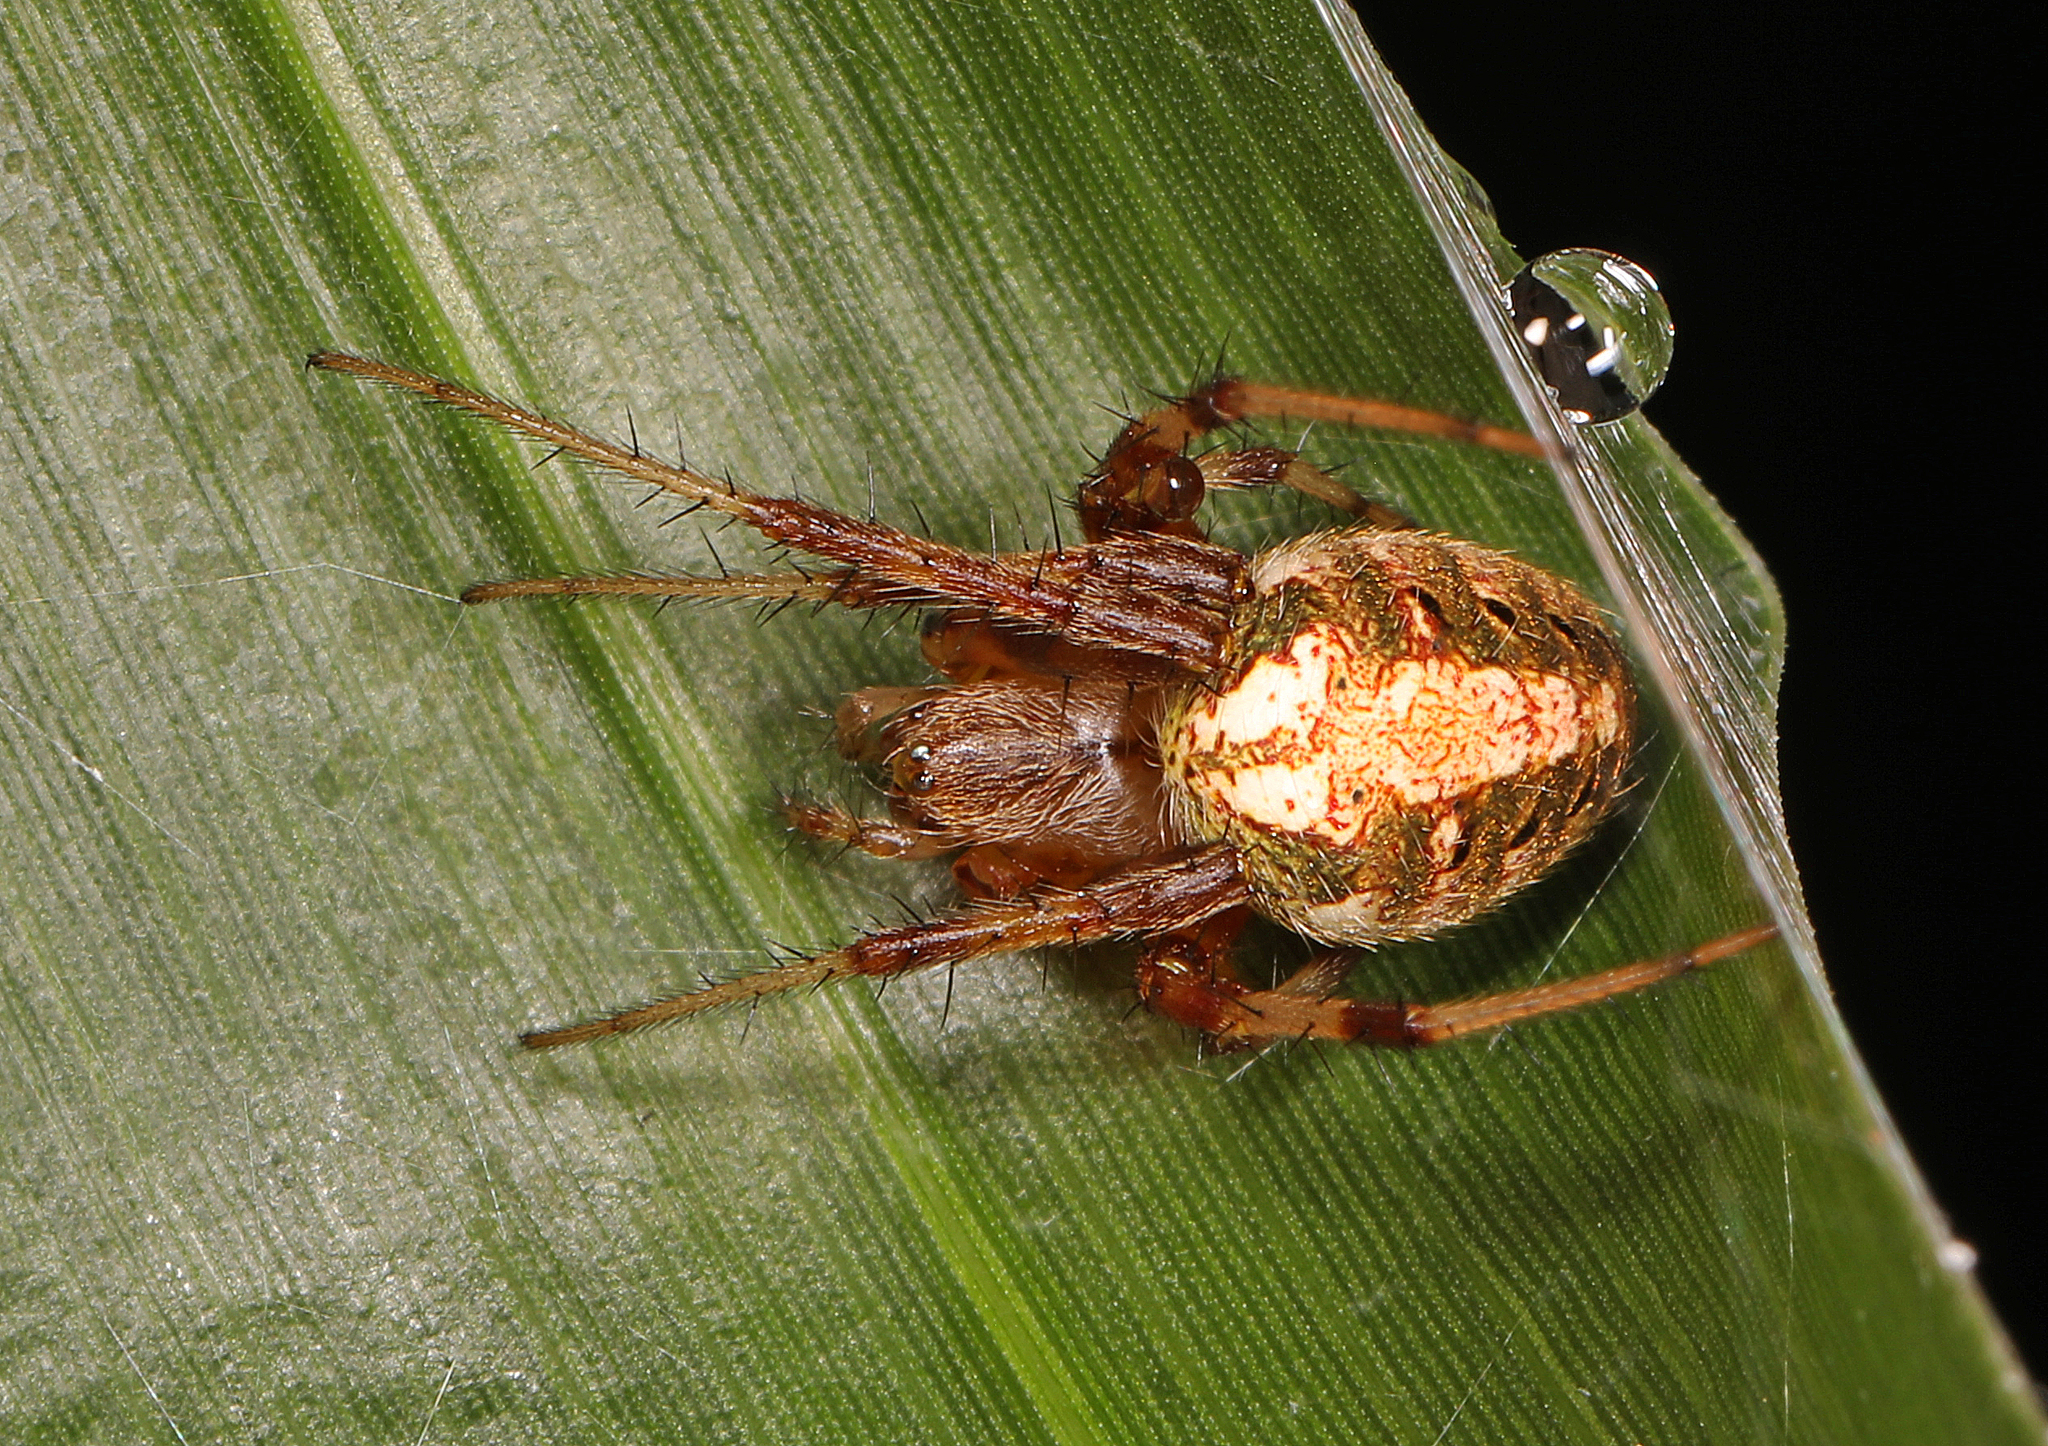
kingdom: Animalia
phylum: Arthropoda
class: Arachnida
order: Araneae
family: Araneidae
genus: Neoscona
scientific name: Neoscona arabesca
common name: Orb weavers
